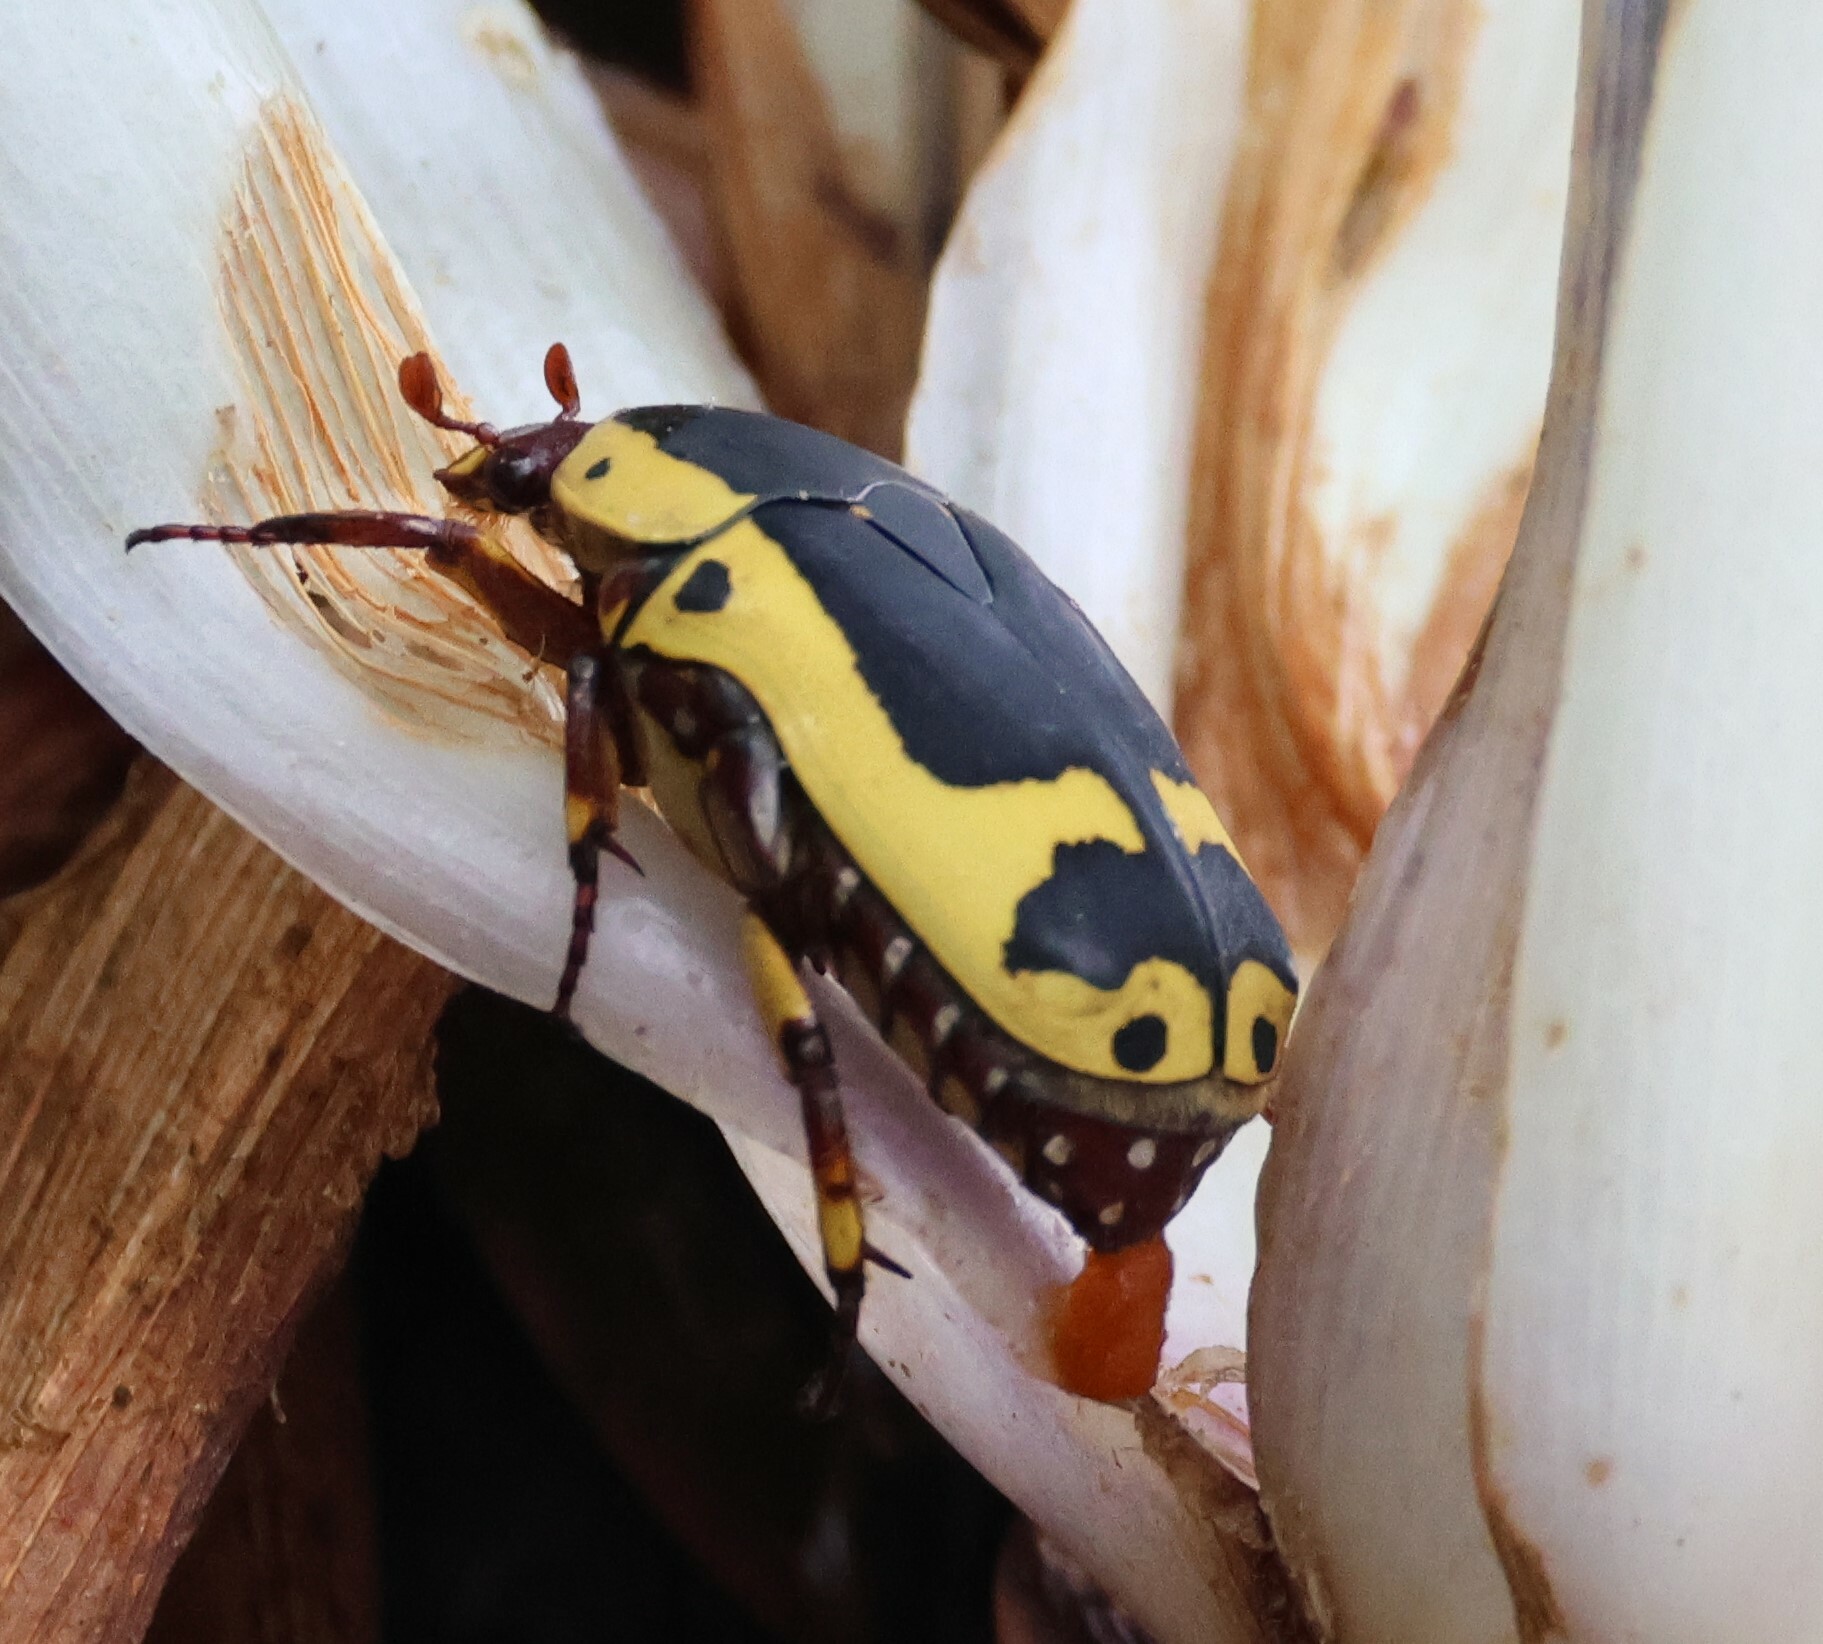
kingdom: Animalia
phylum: Arthropoda
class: Insecta
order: Coleoptera
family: Scarabaeidae
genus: Pachnoda
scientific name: Pachnoda sinuata
